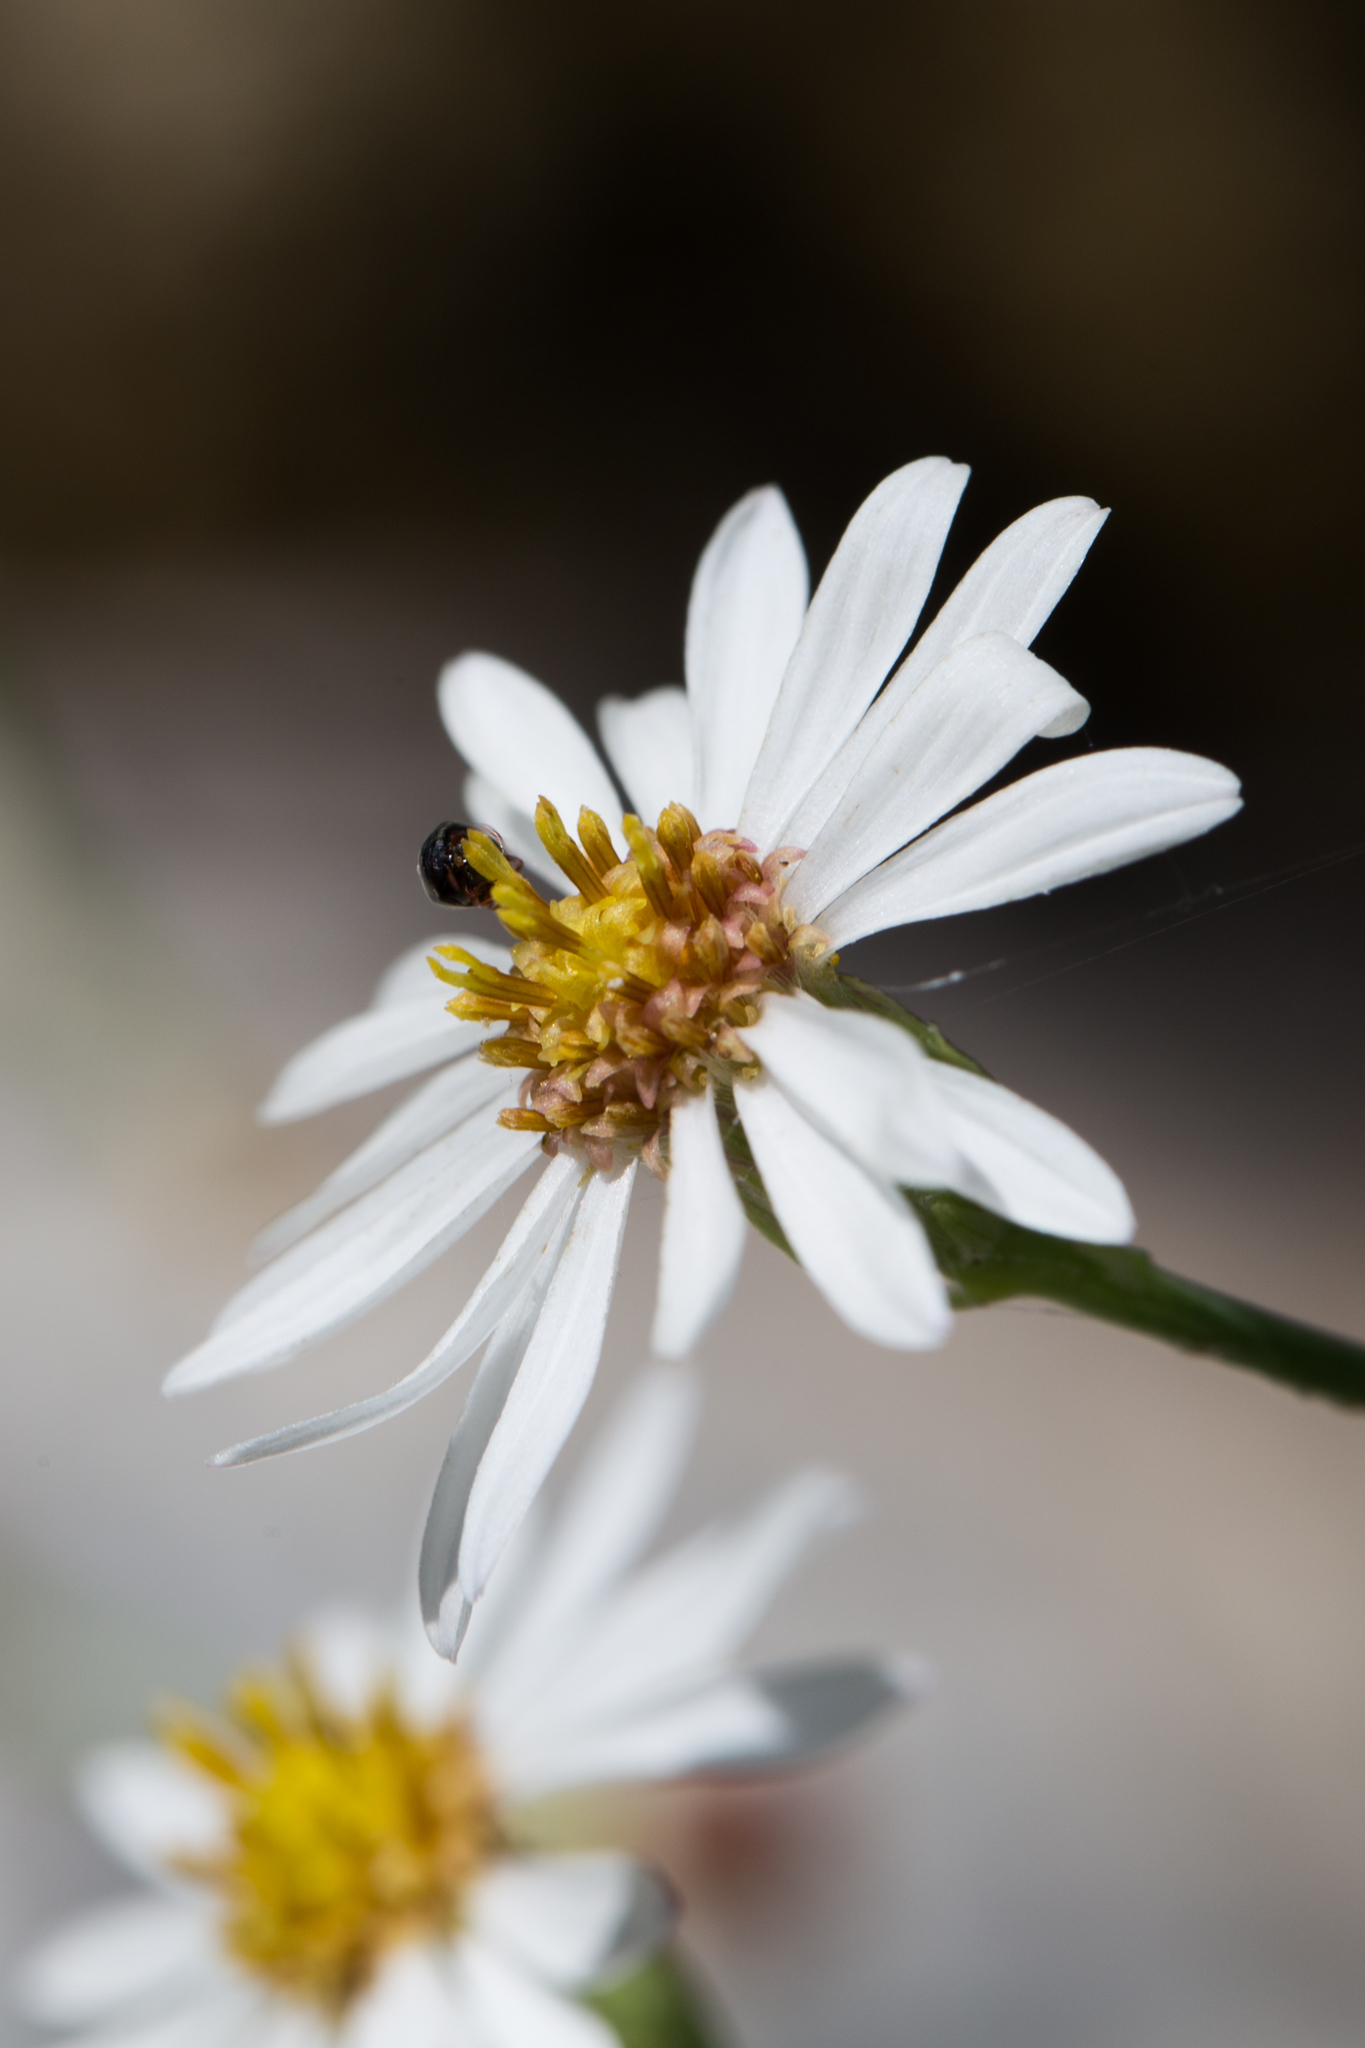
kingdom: Plantae
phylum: Tracheophyta
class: Magnoliopsida
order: Asterales
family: Asteraceae
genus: Chloracantha
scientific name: Chloracantha spinosissima
